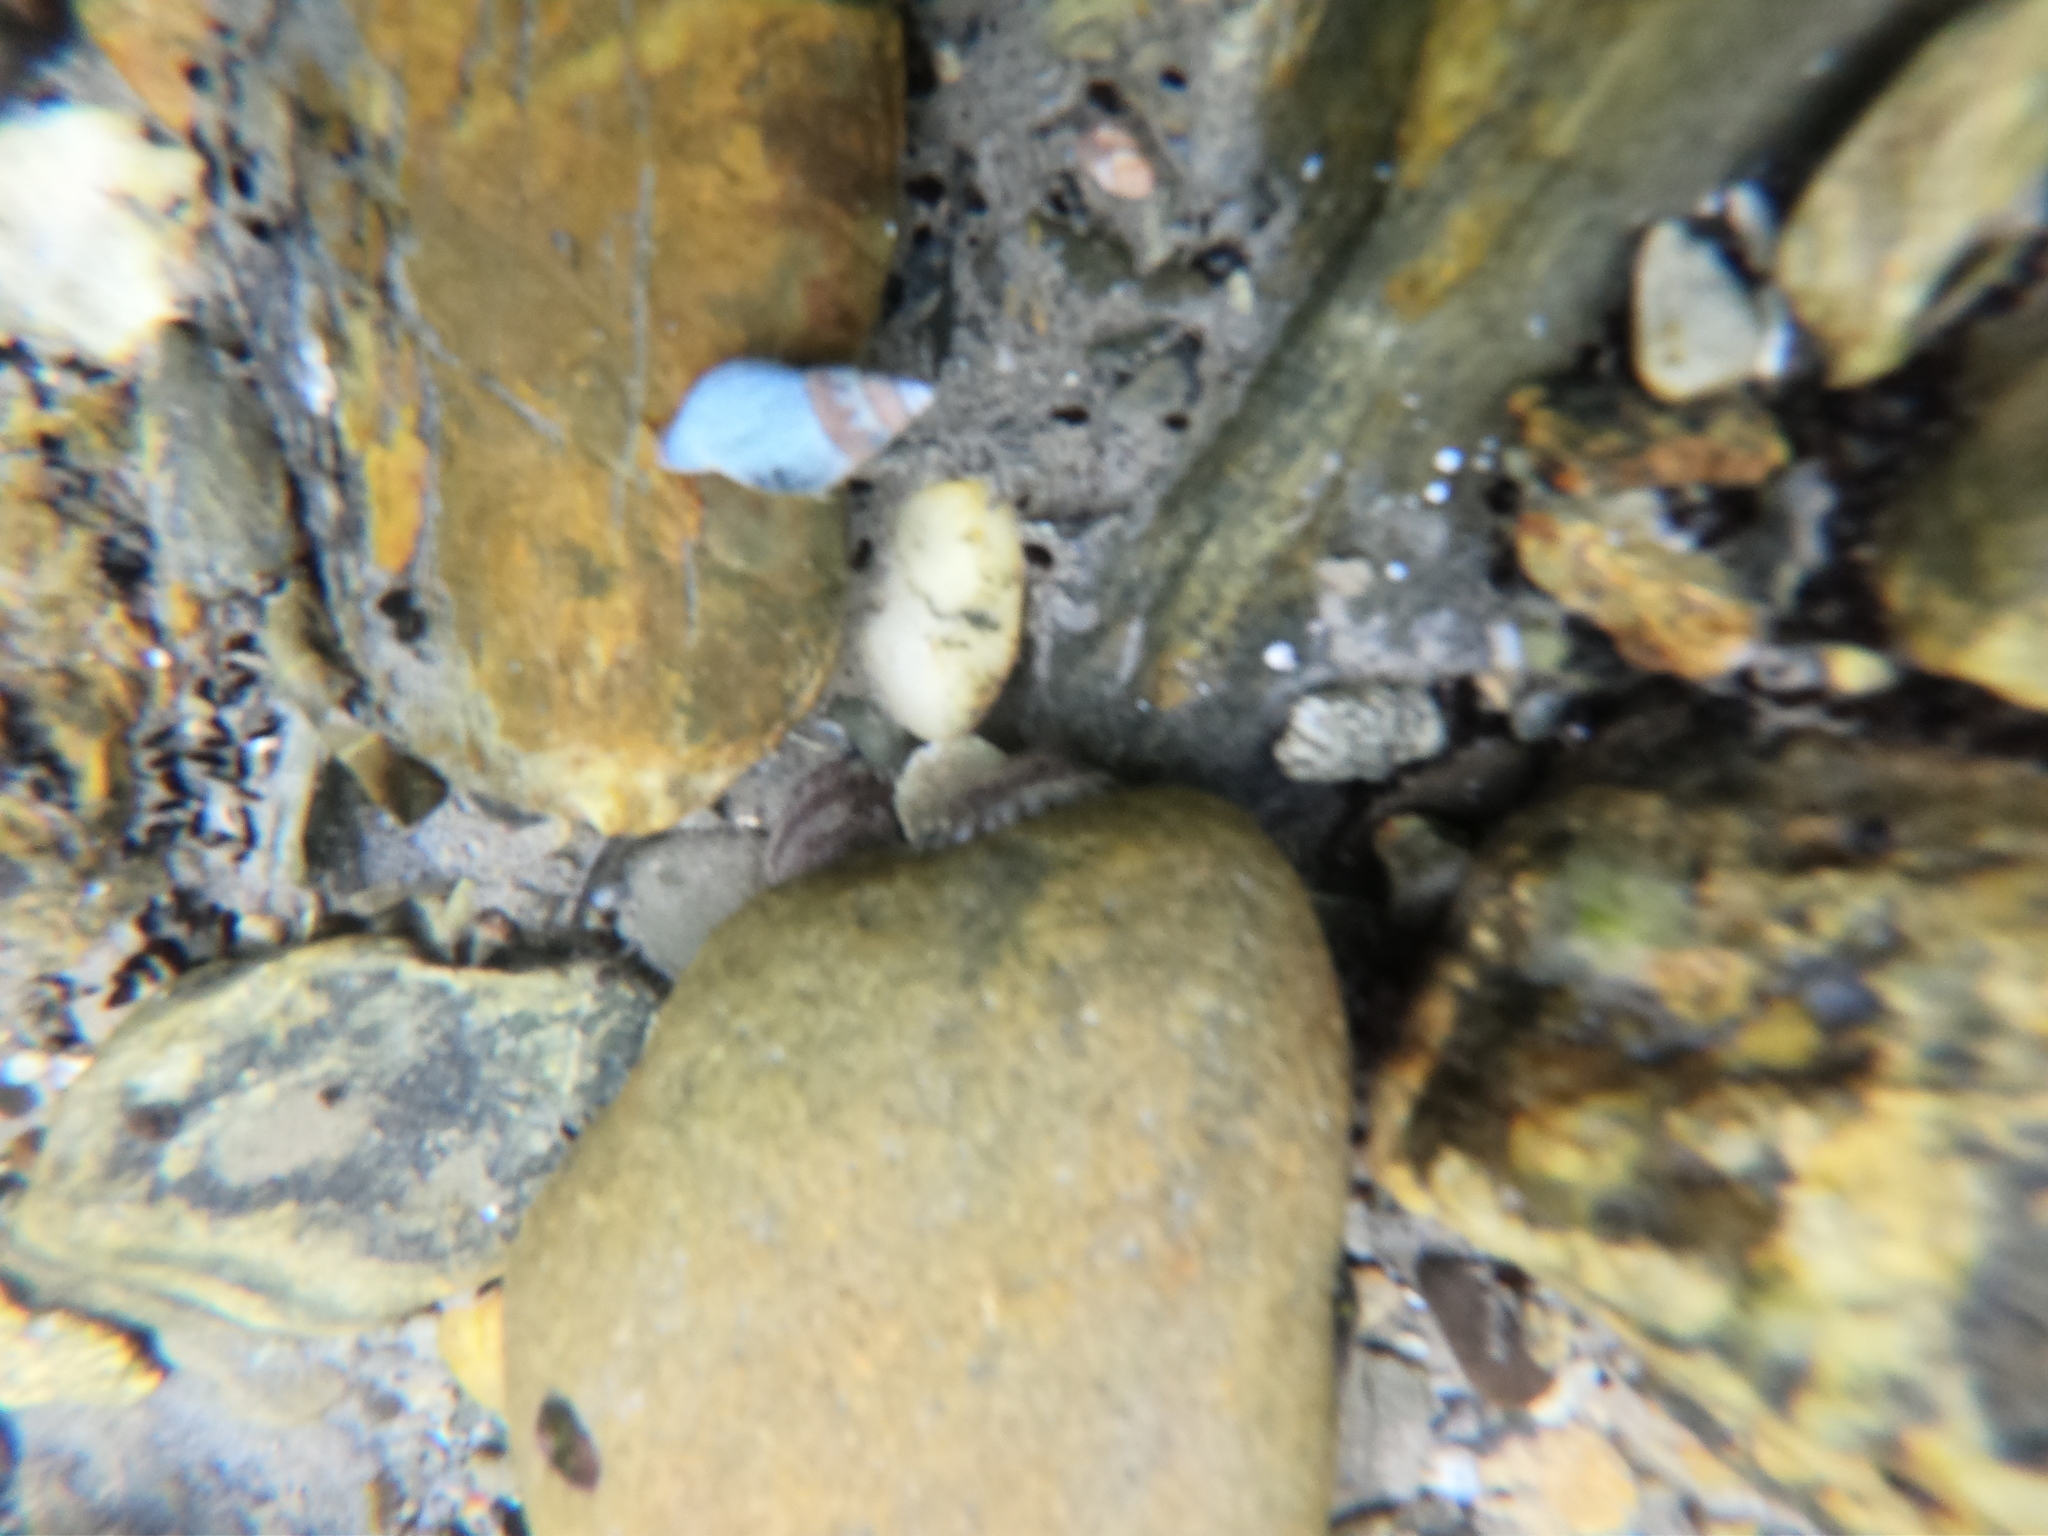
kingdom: Animalia
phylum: Mollusca
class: Gastropoda
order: Neogastropoda
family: Cominellidae
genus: Pareuthria
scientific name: Pareuthria fuscata
